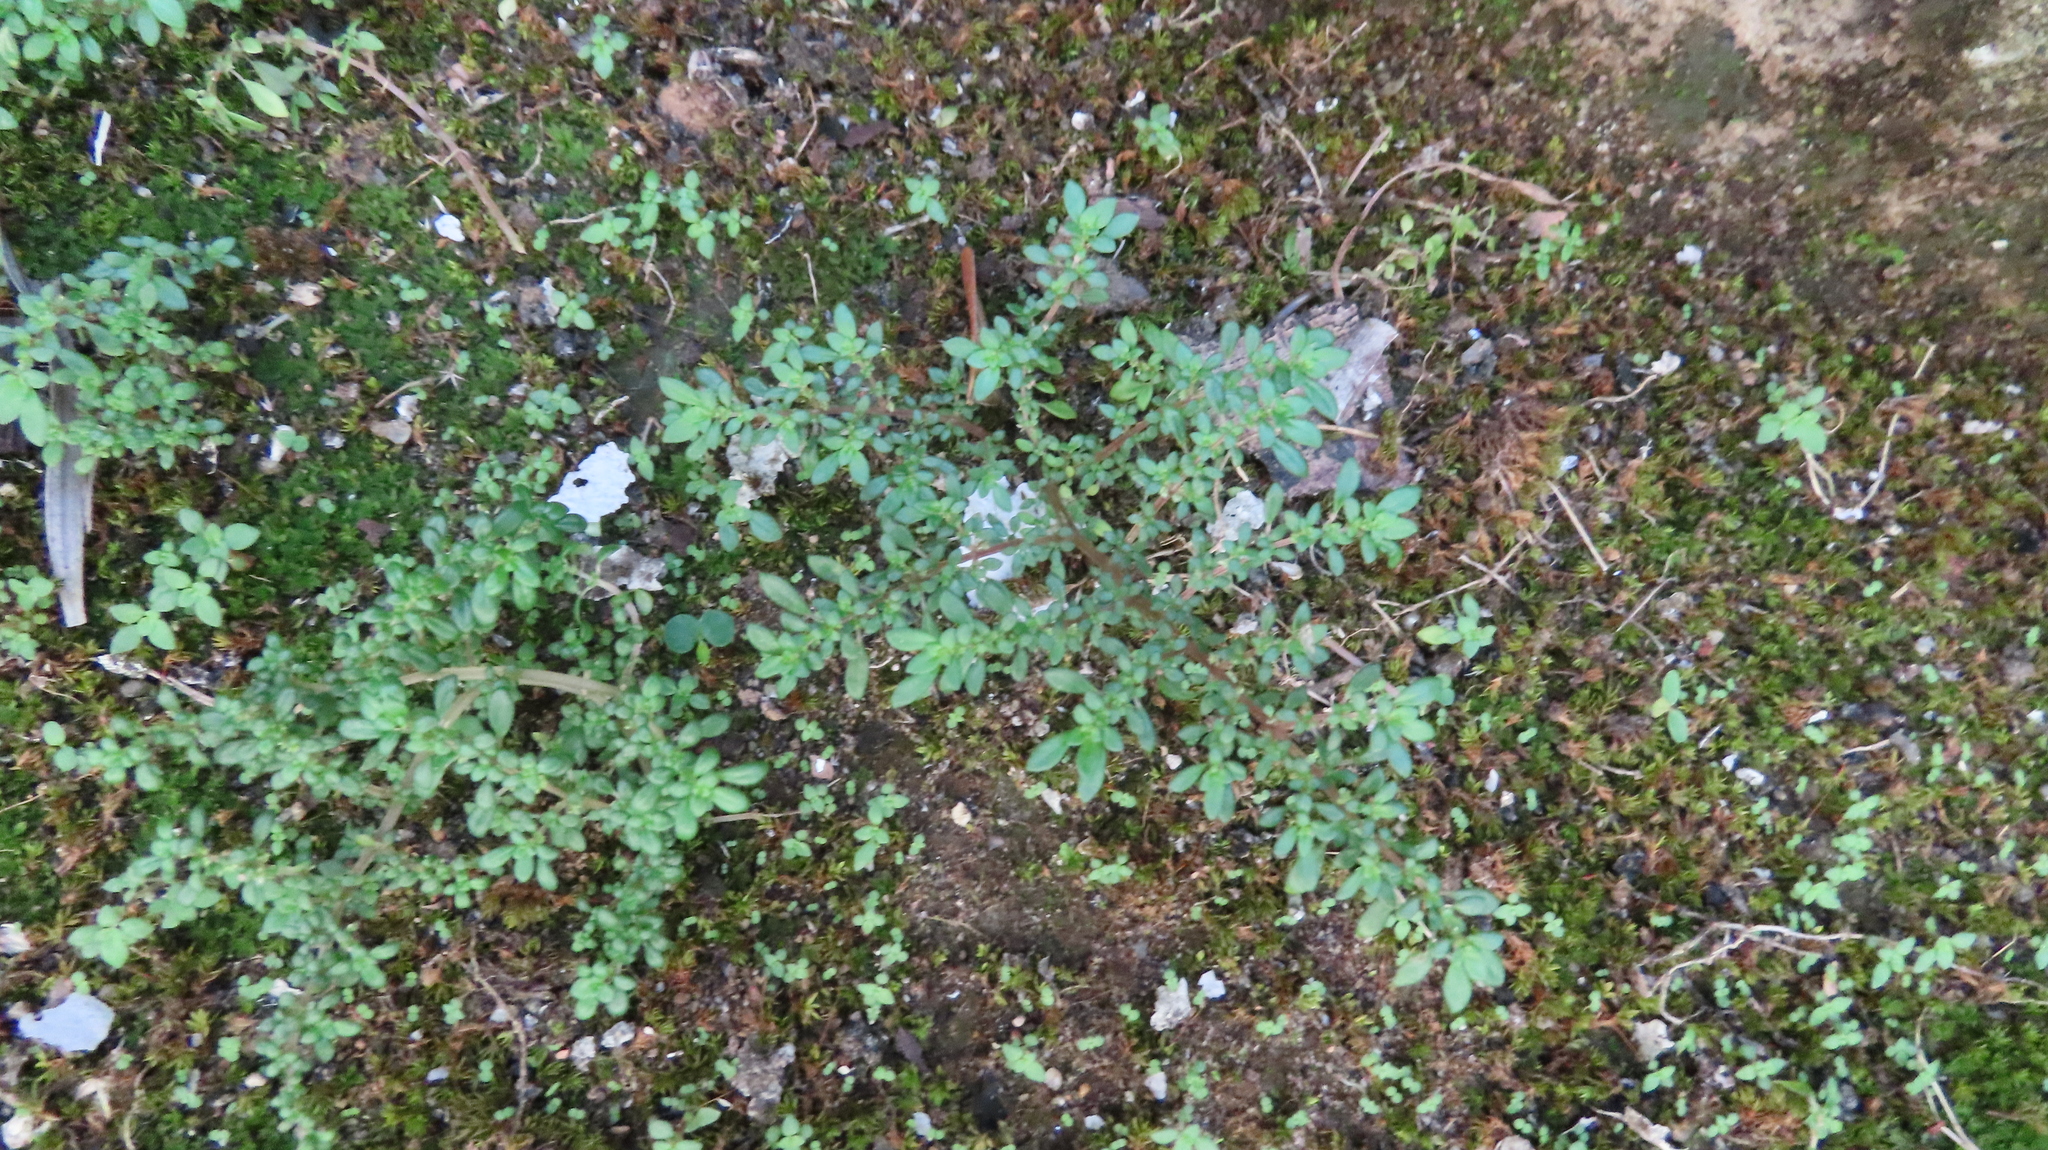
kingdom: Plantae
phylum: Tracheophyta
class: Magnoliopsida
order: Rosales
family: Urticaceae
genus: Pilea
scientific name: Pilea microphylla
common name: Artillery-plant
